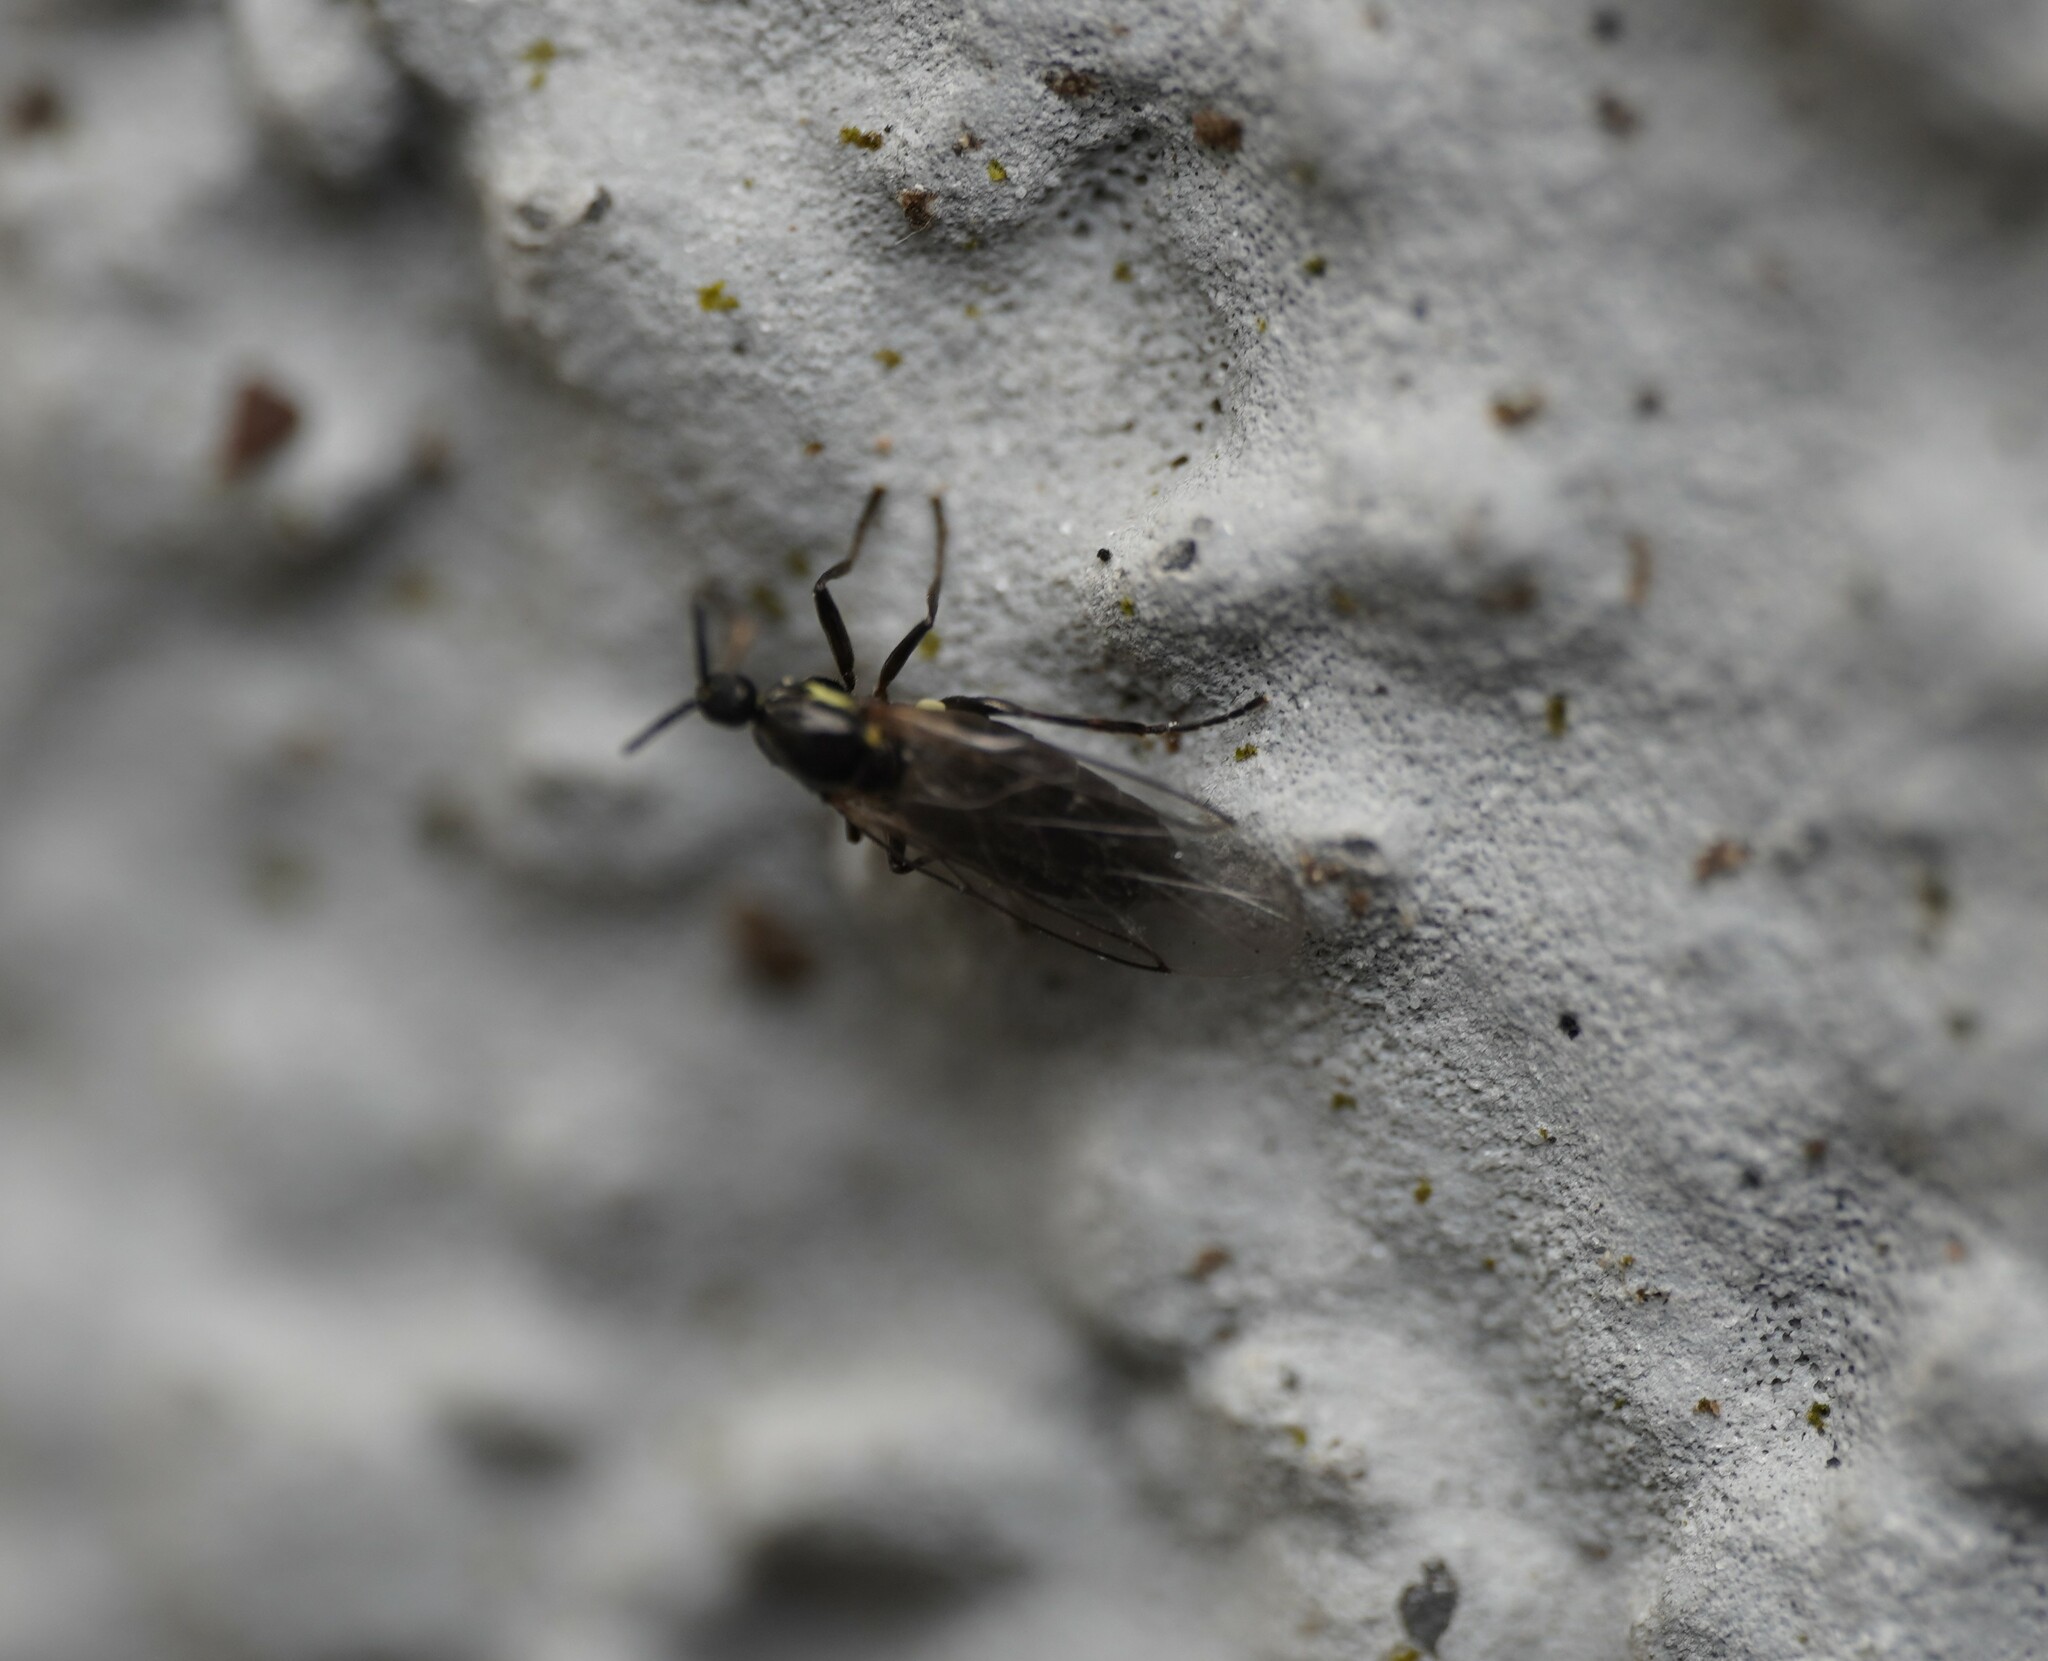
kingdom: Animalia
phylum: Arthropoda
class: Insecta
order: Diptera
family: Scatopsidae
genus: Scatopse
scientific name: Scatopse notata
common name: Minute black scavenger fly
